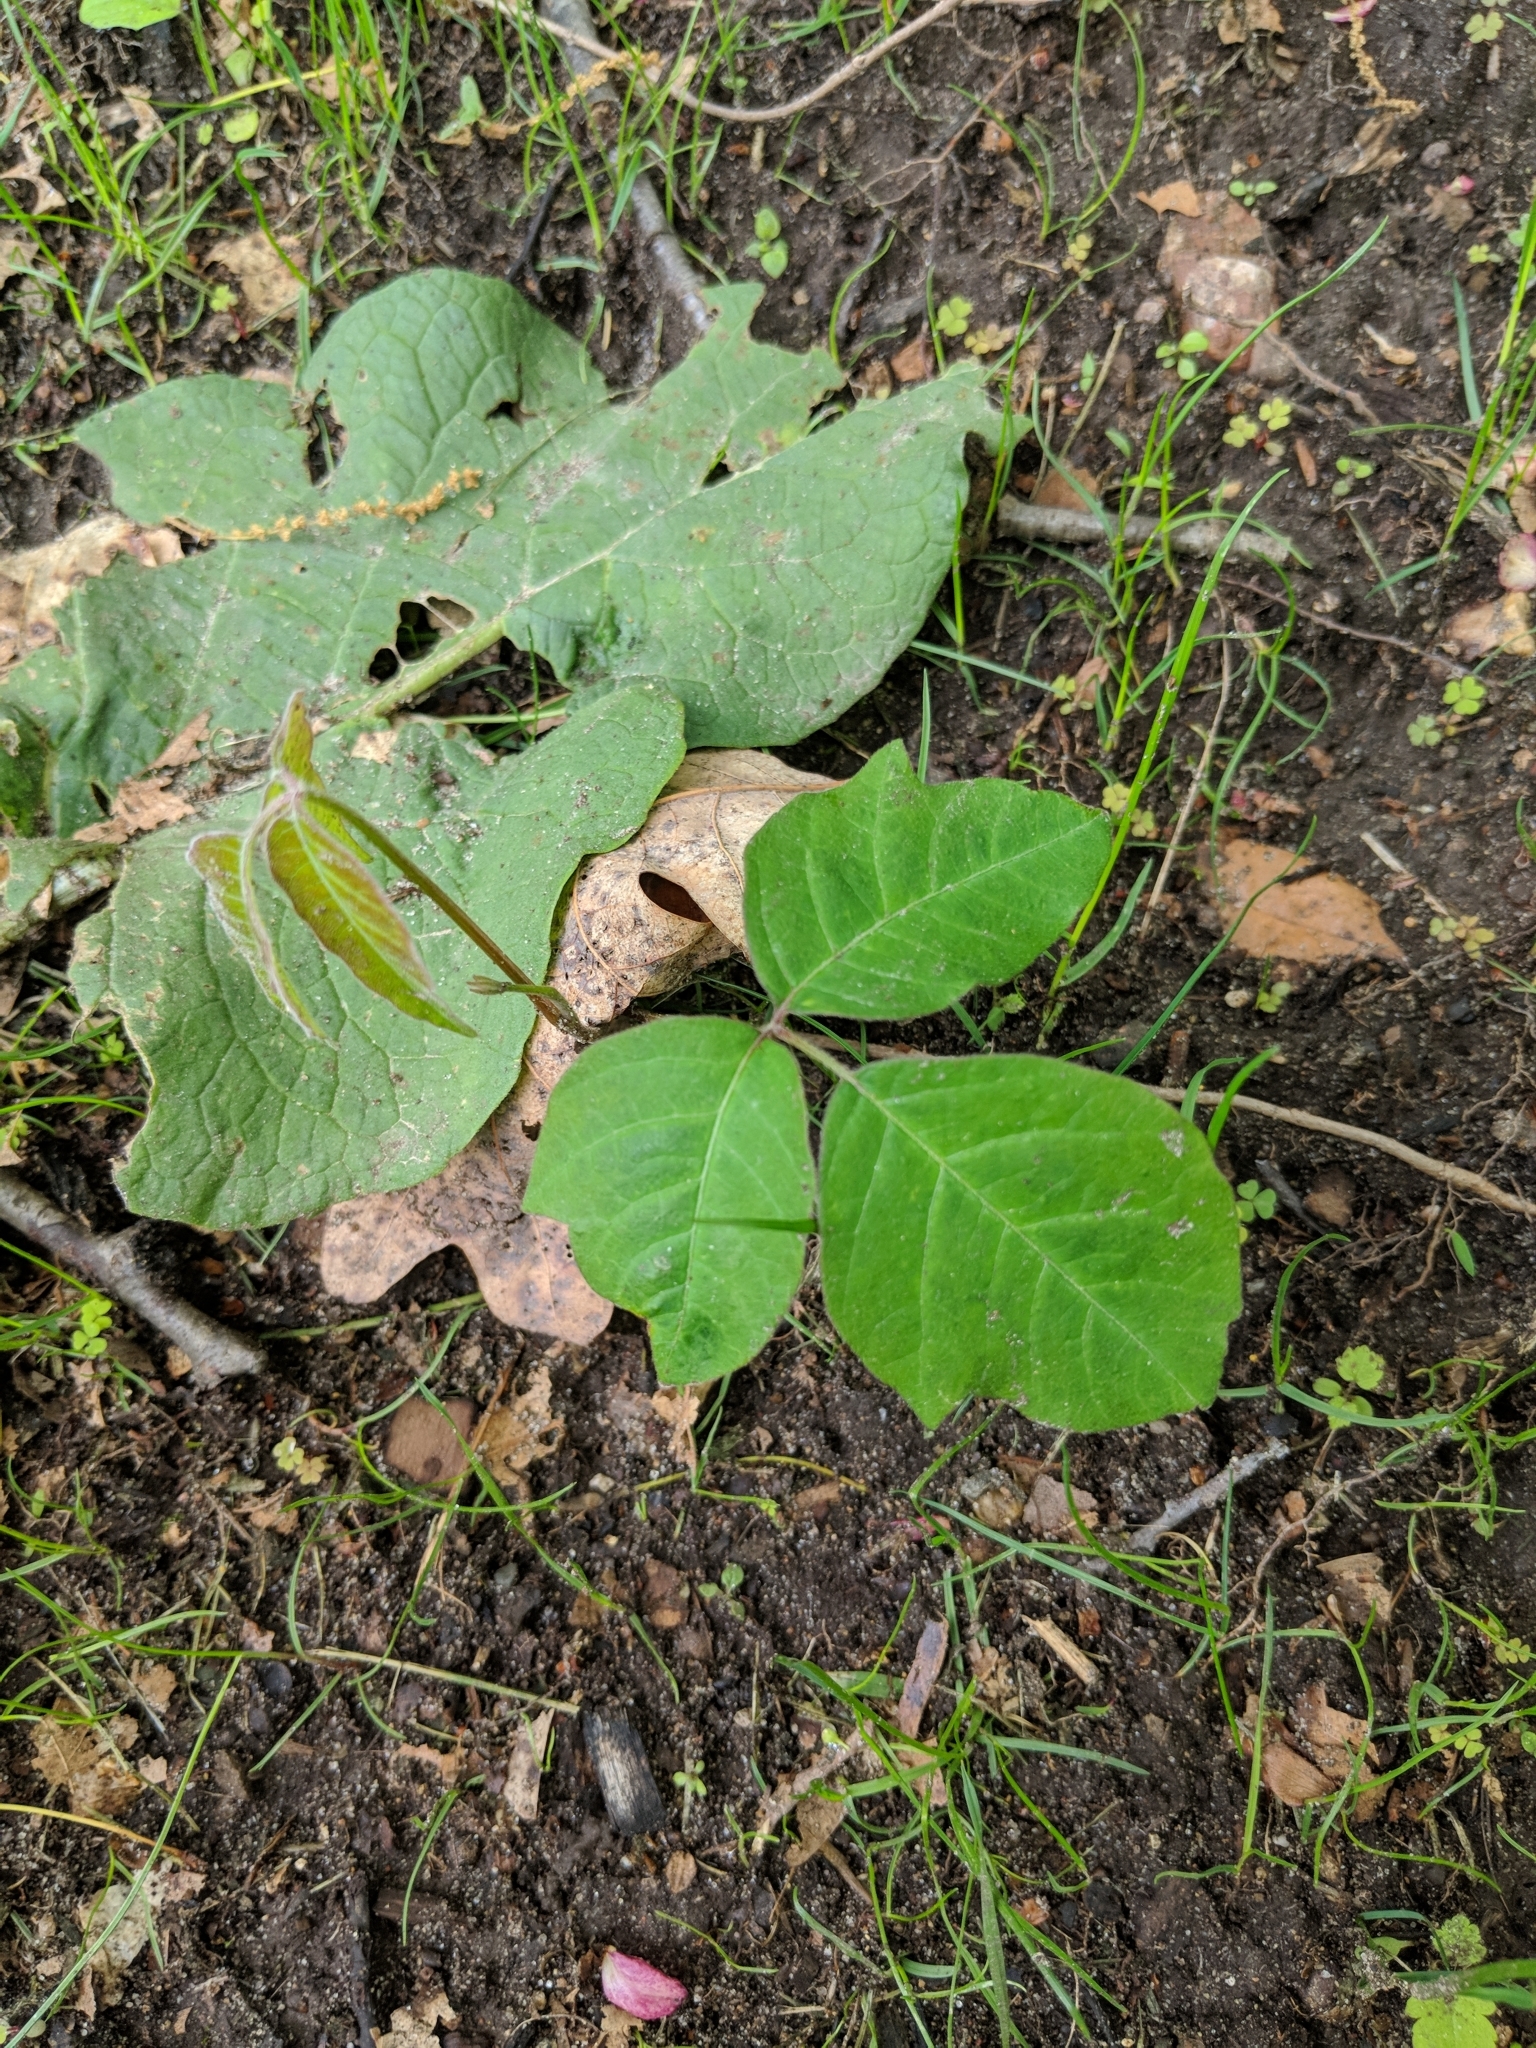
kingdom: Plantae
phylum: Tracheophyta
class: Magnoliopsida
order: Sapindales
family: Anacardiaceae
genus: Toxicodendron
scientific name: Toxicodendron radicans
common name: Poison ivy
